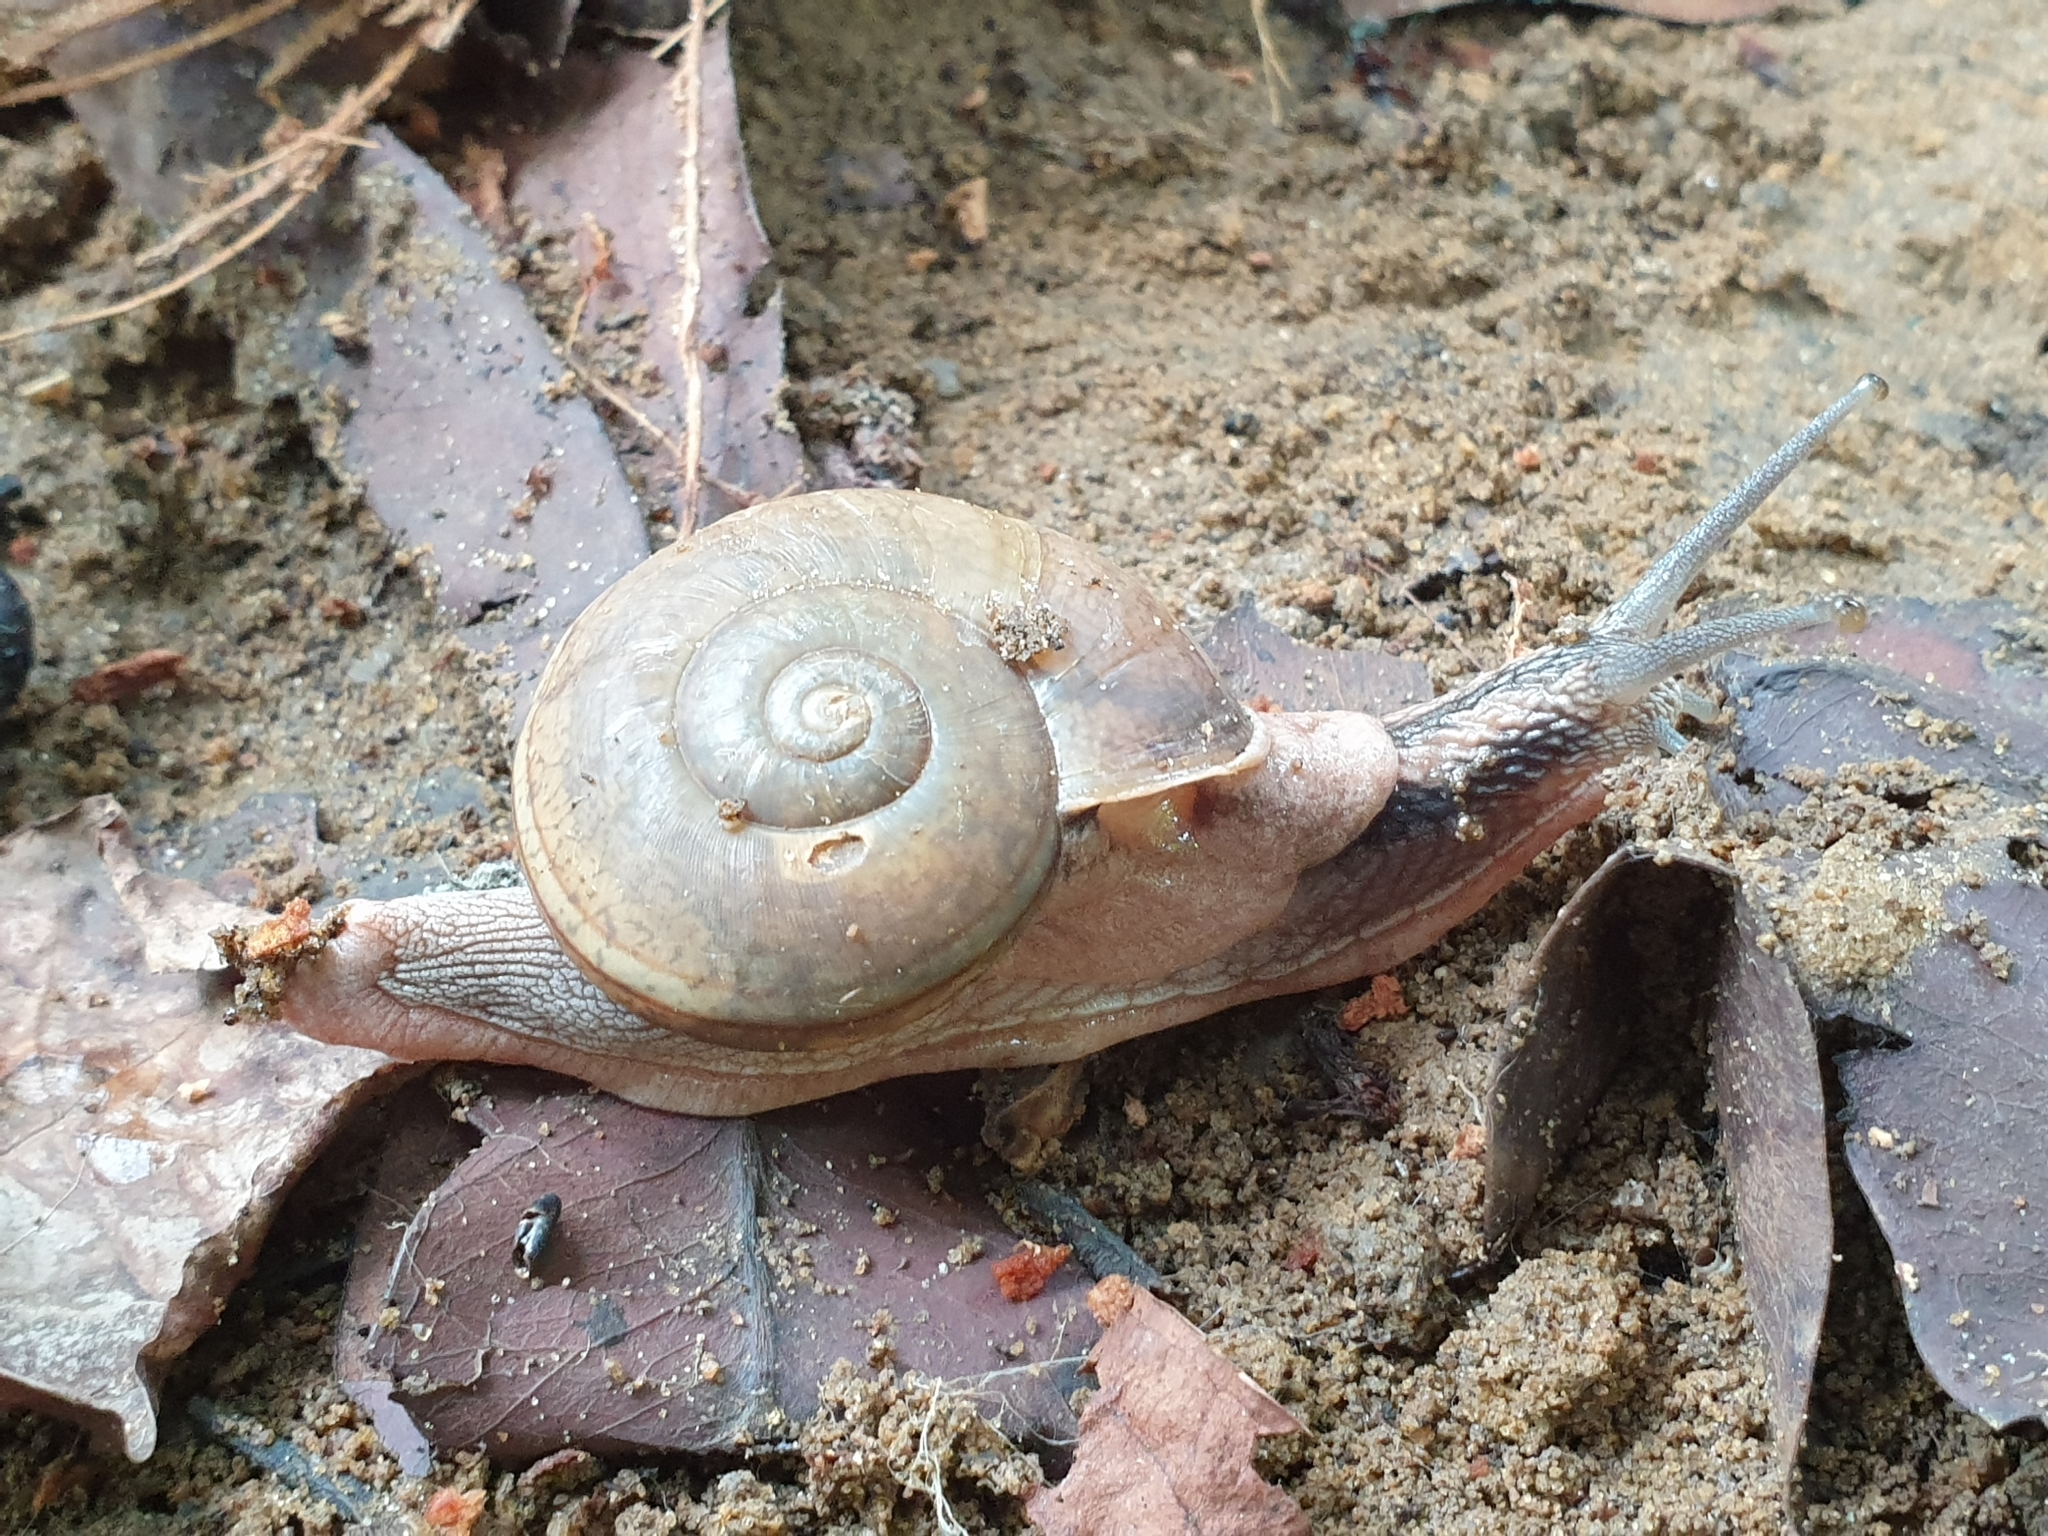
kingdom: Animalia
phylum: Mollusca
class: Gastropoda
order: Stylommatophora
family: Ariophantidae
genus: Ariophanta
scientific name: Ariophanta exilis
